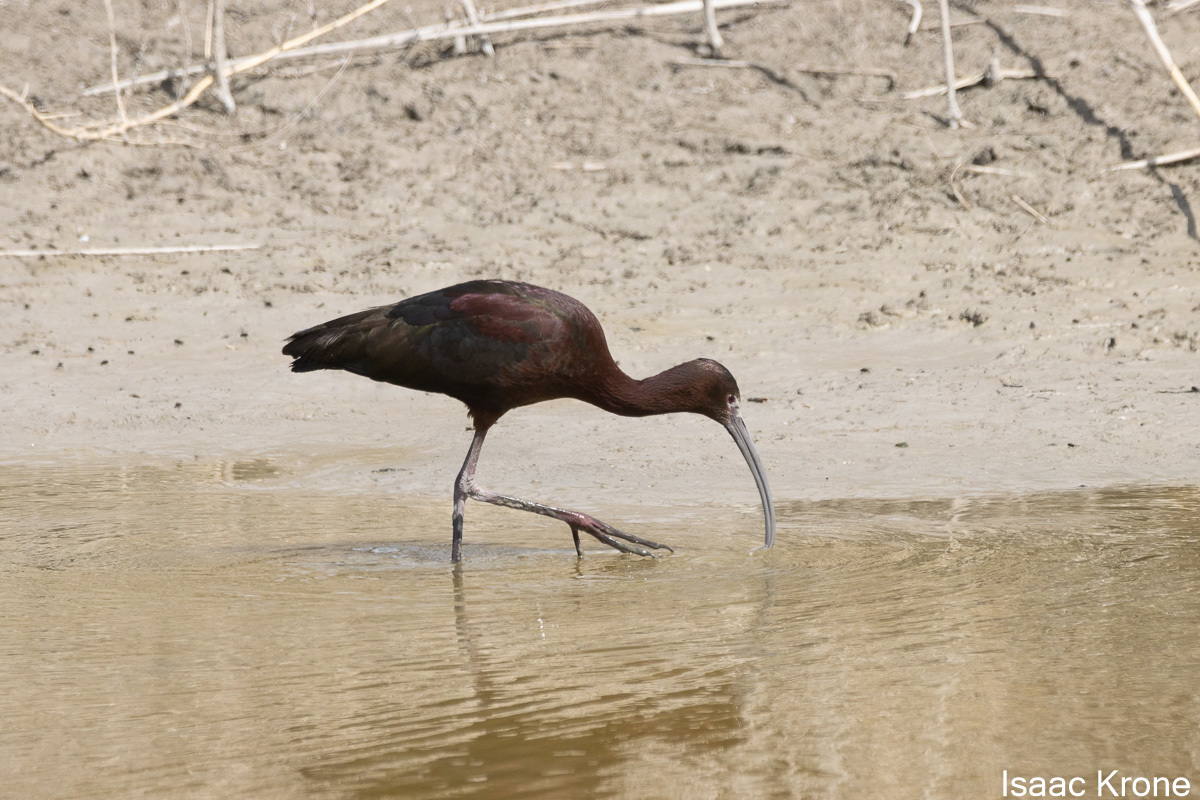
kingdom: Animalia
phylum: Chordata
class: Aves
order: Pelecaniformes
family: Threskiornithidae
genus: Plegadis
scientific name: Plegadis chihi
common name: White-faced ibis
